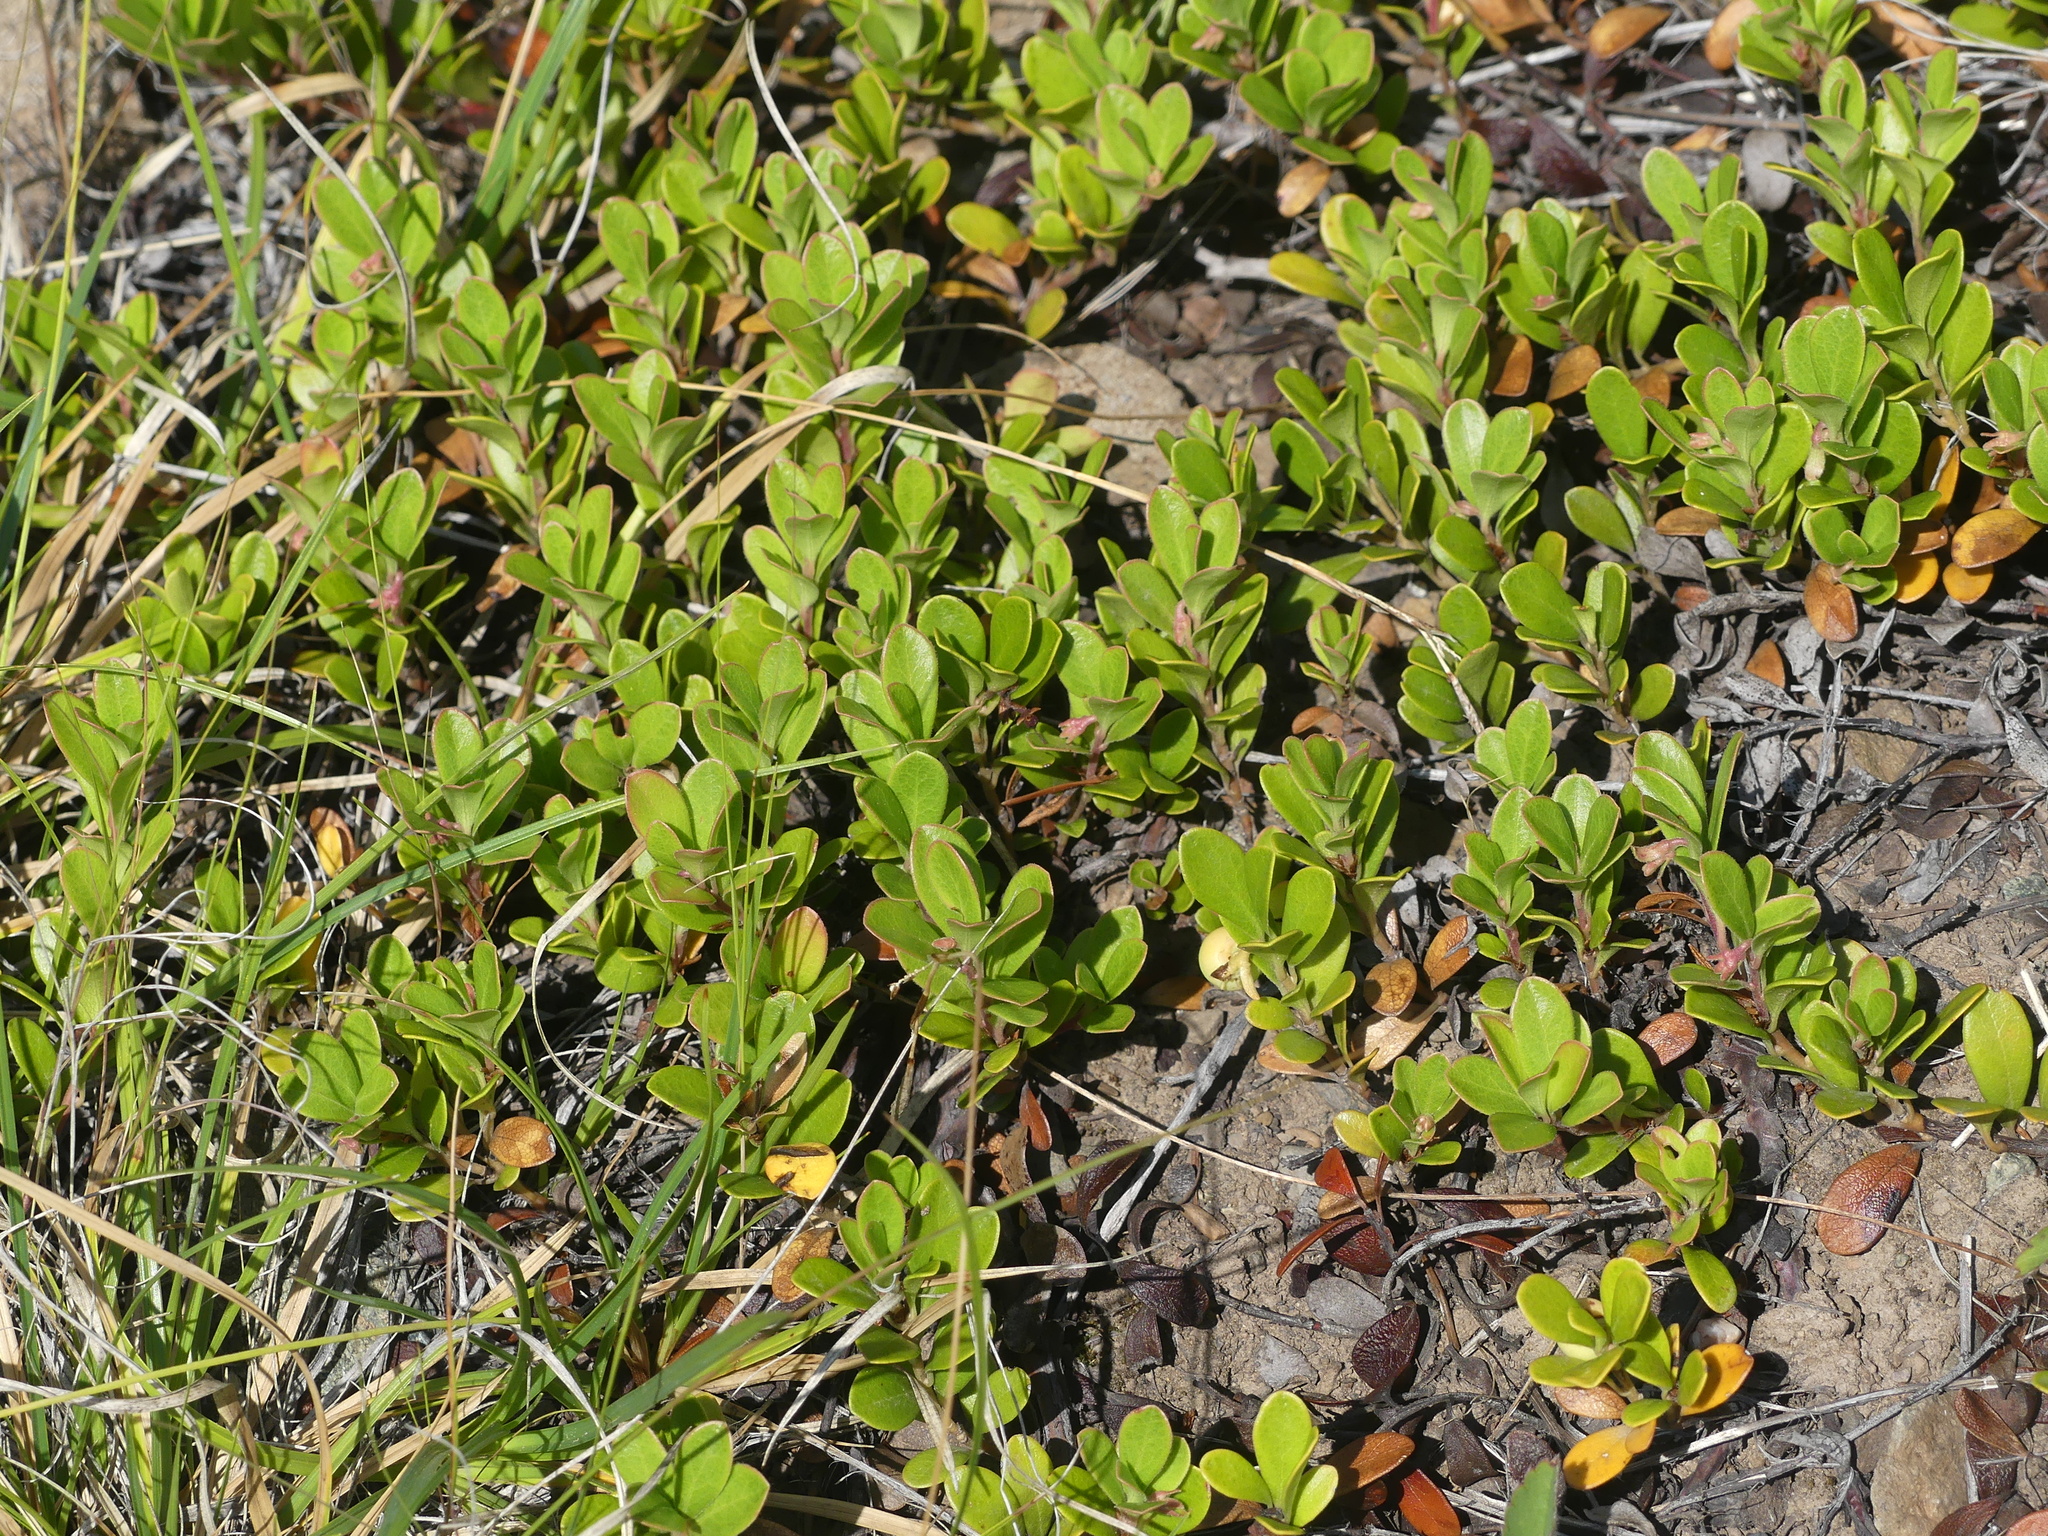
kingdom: Plantae
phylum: Tracheophyta
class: Magnoliopsida
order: Ericales
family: Ericaceae
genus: Arctostaphylos
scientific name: Arctostaphylos uva-ursi
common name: Bearberry
